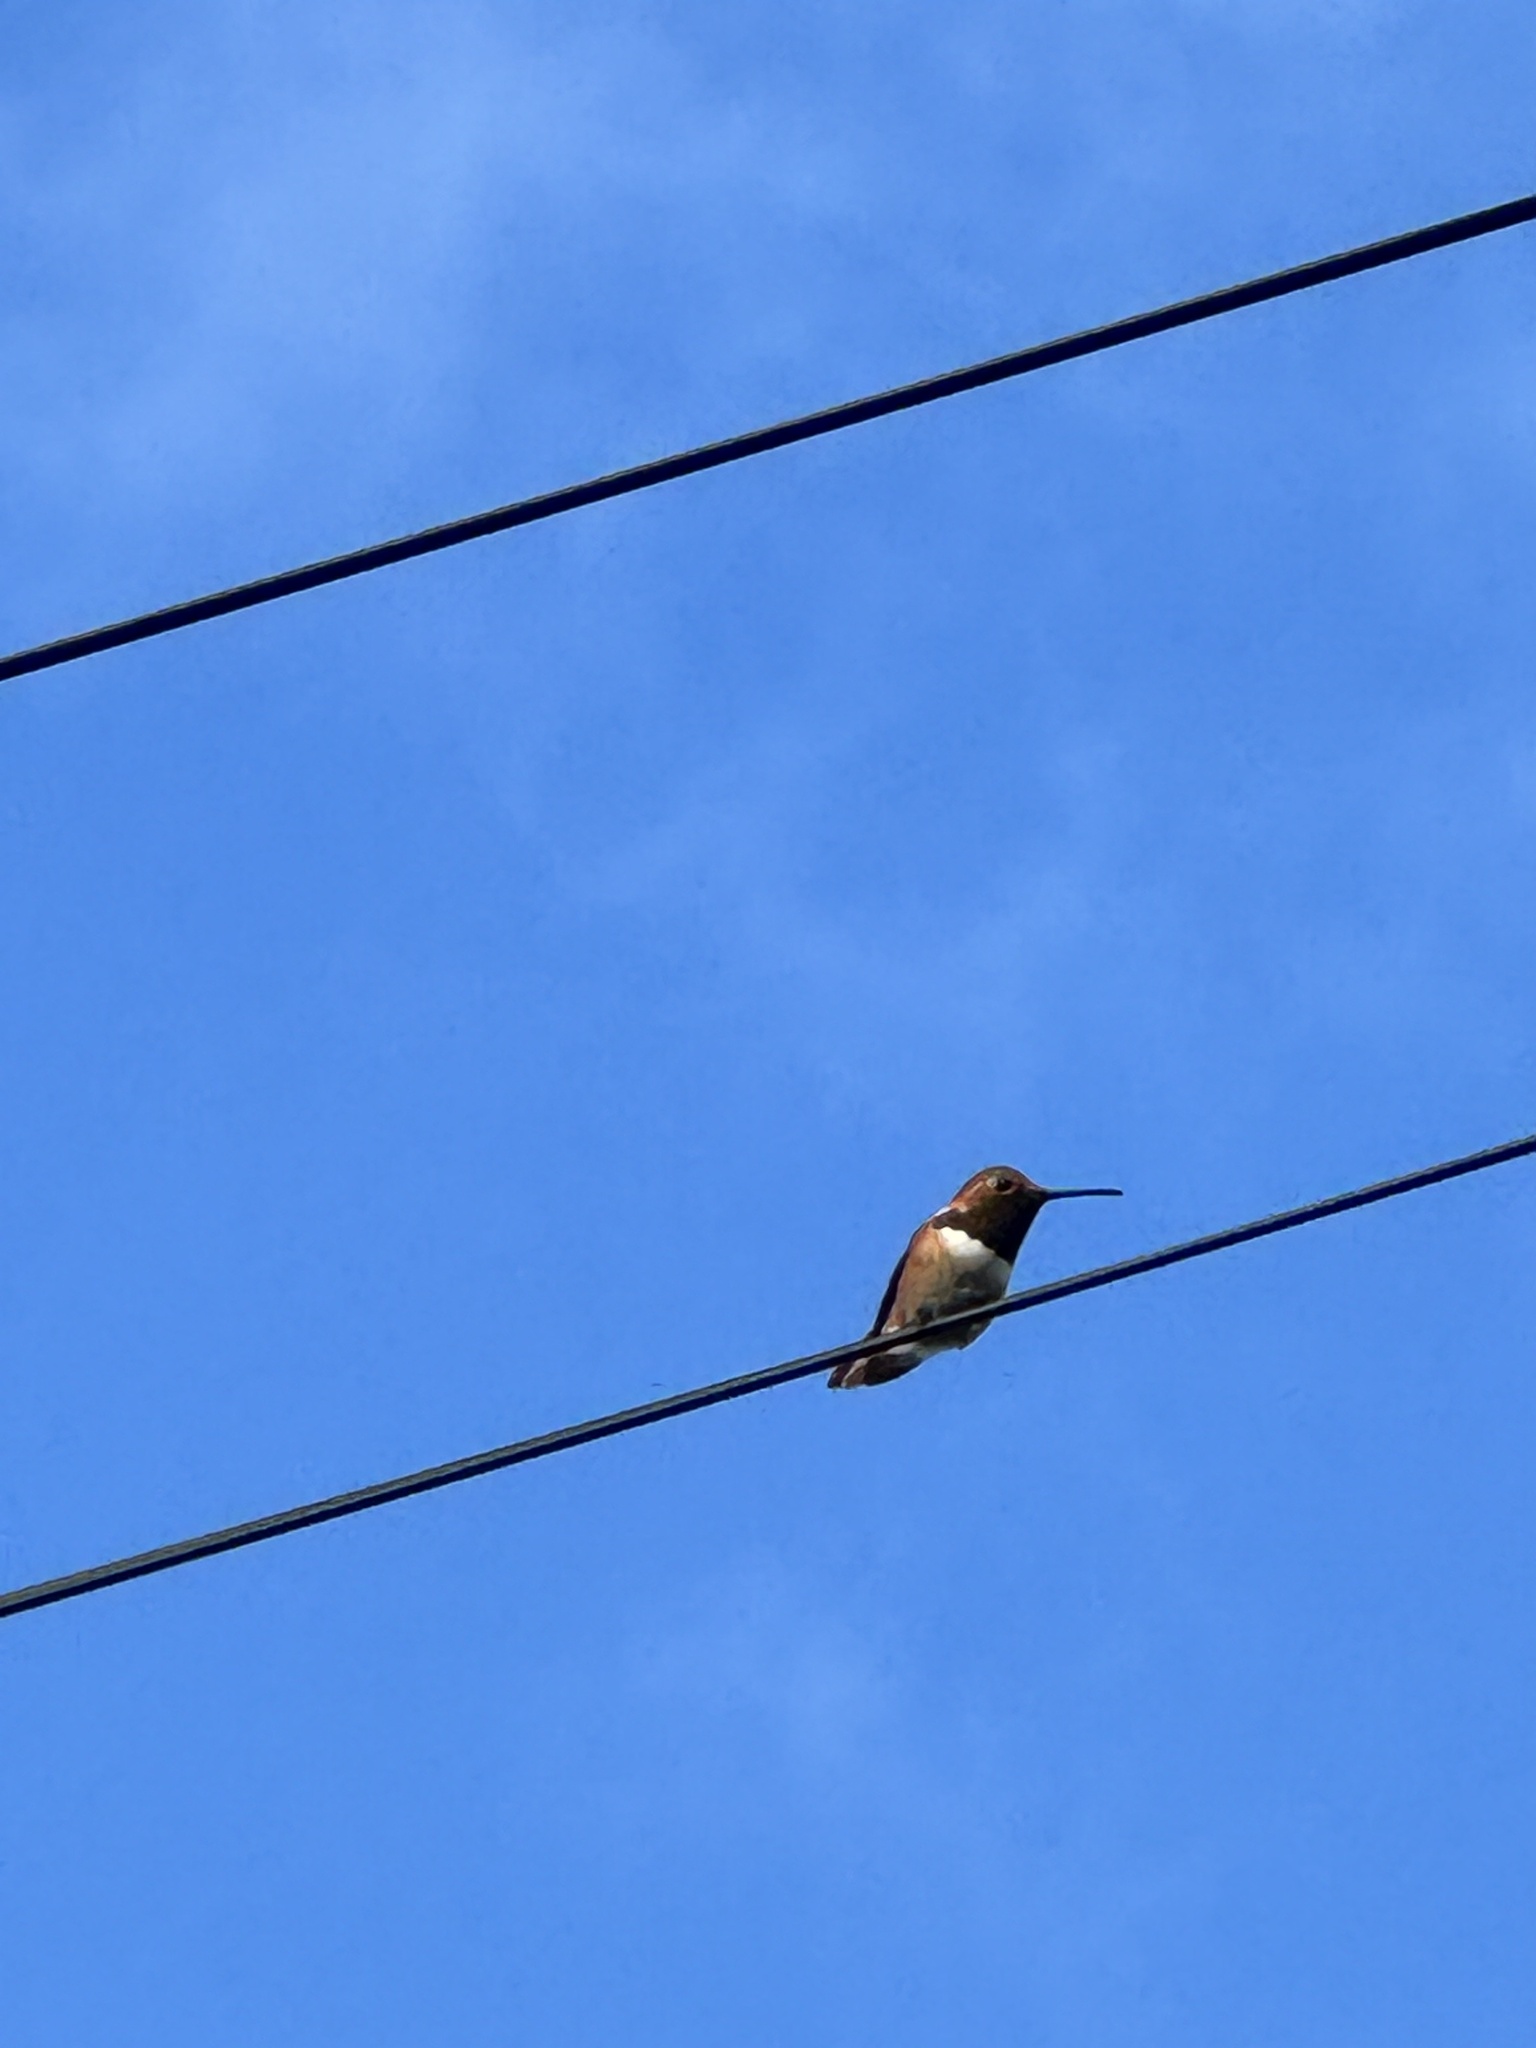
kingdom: Animalia
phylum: Chordata
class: Aves
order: Apodiformes
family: Trochilidae
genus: Selasphorus
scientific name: Selasphorus sasin
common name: Allen's hummingbird
